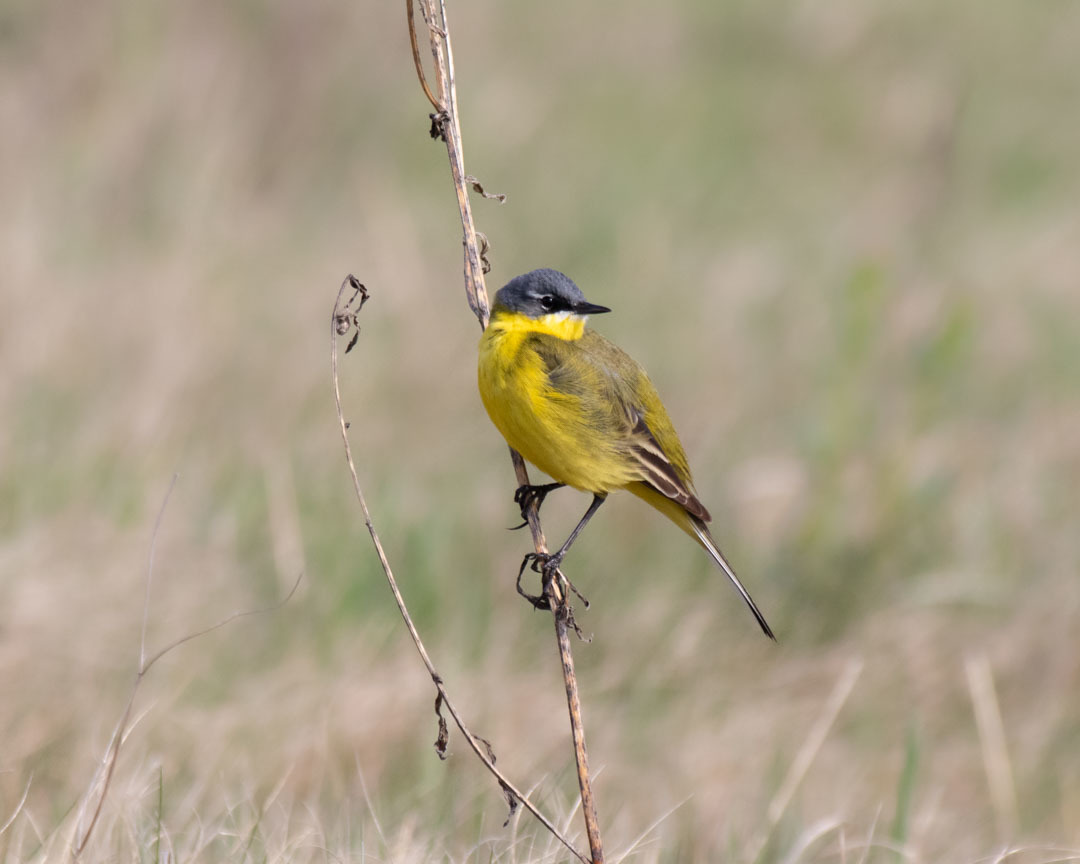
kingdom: Animalia
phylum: Chordata
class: Aves
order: Passeriformes
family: Motacillidae
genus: Motacilla
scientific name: Motacilla flava
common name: Western yellow wagtail
